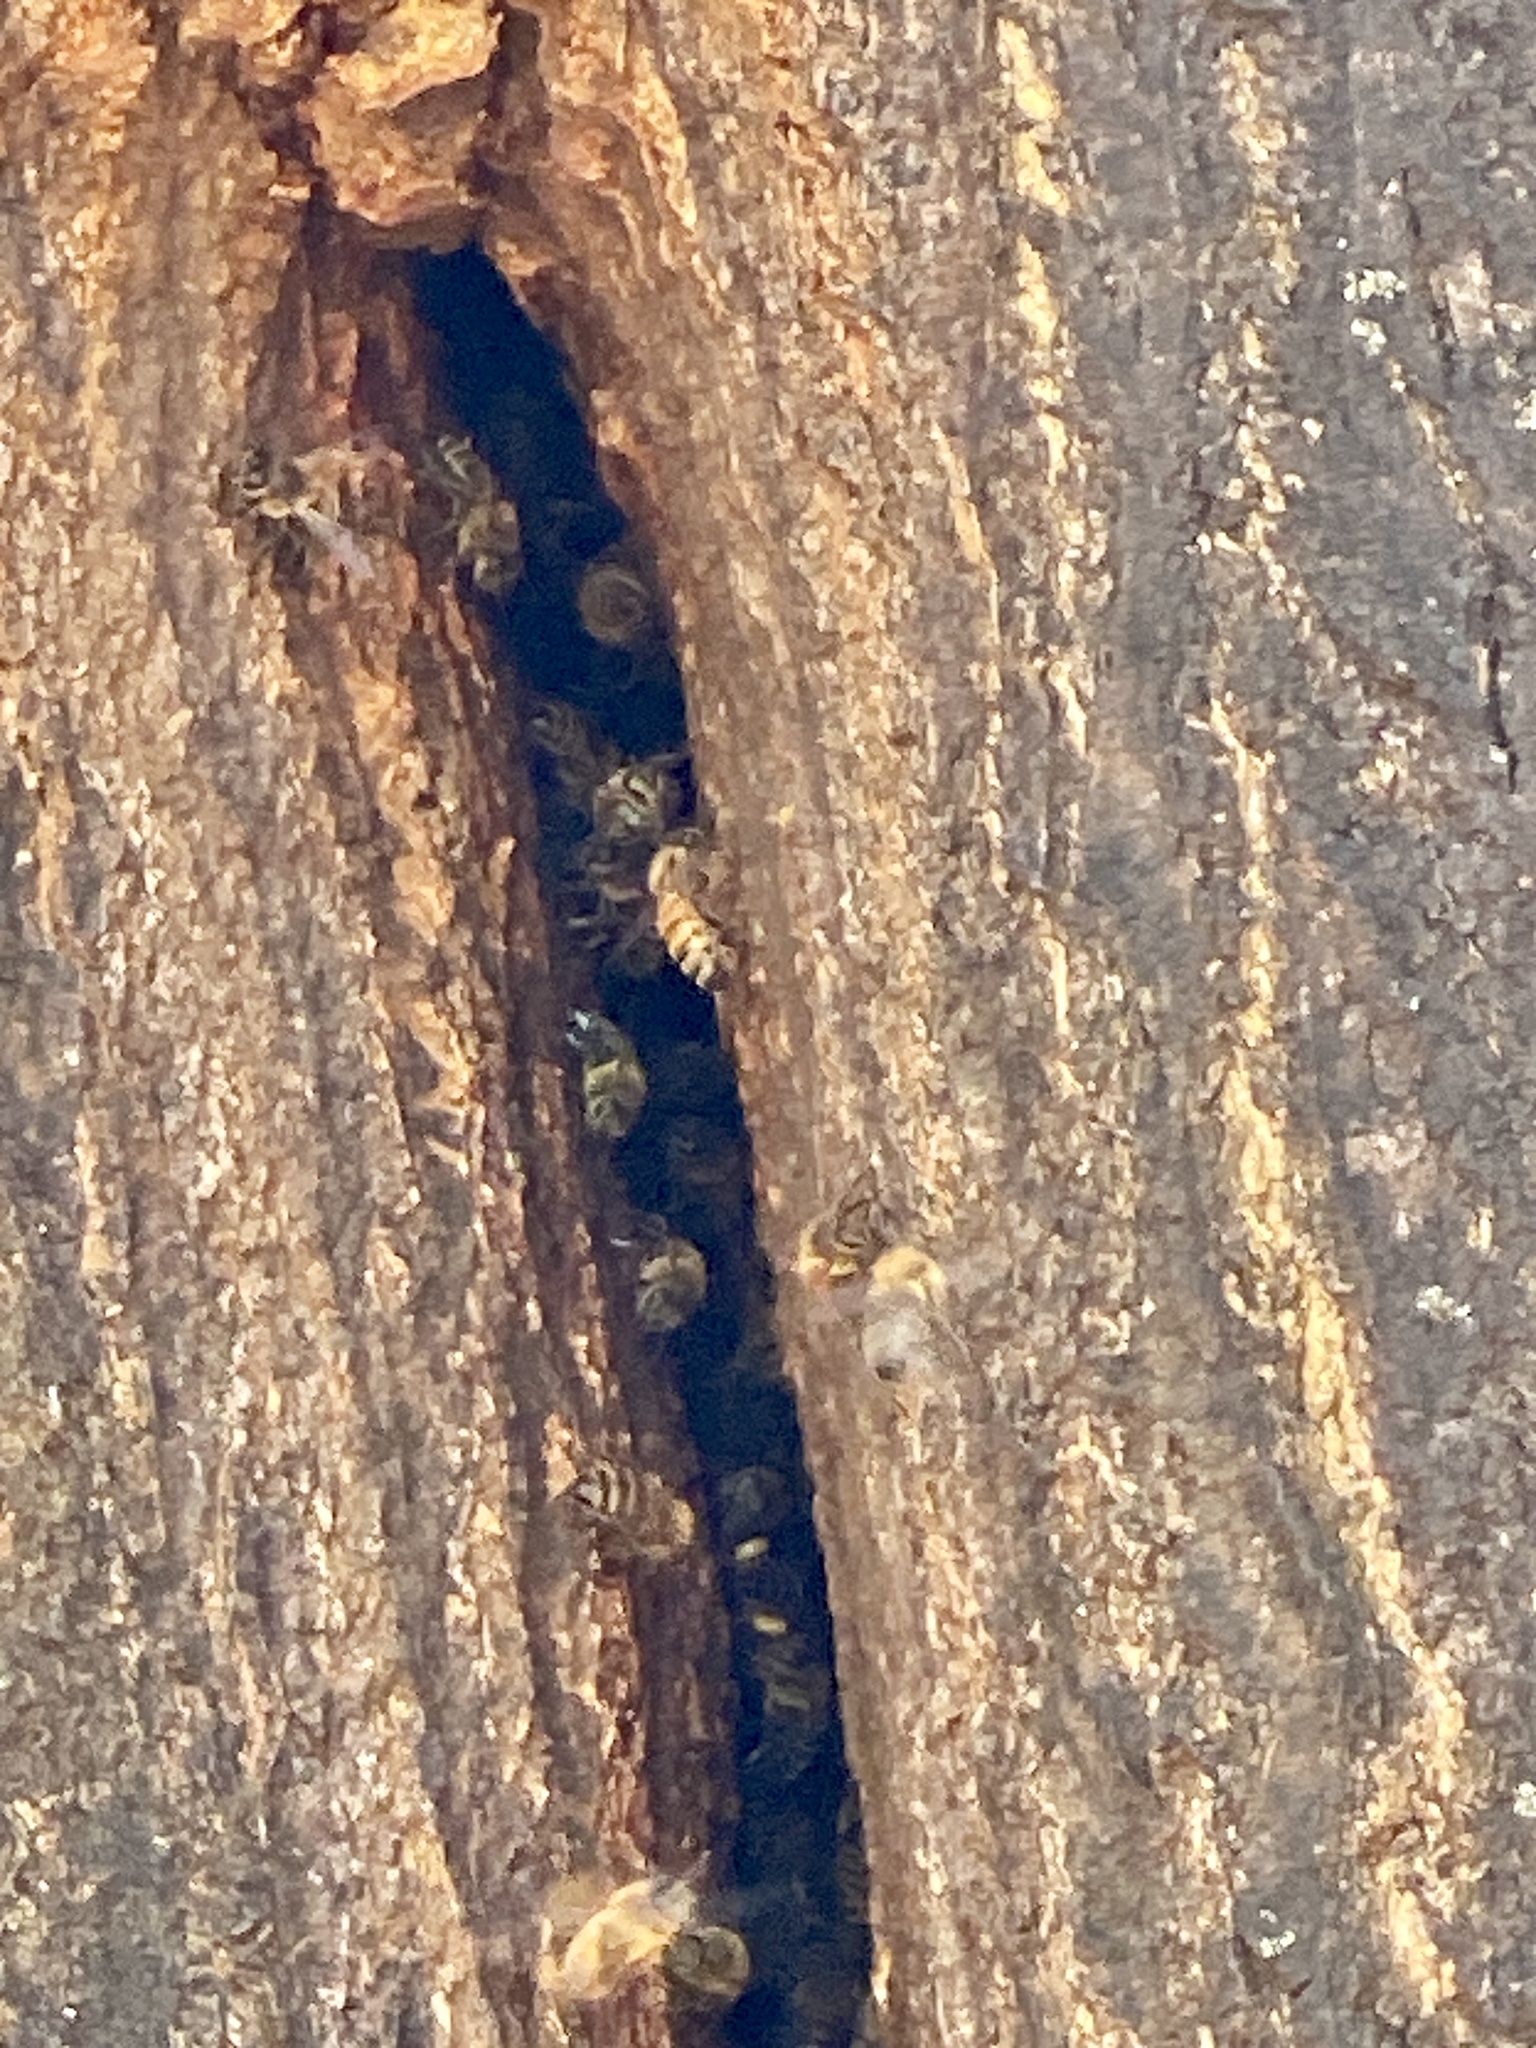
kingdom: Animalia
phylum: Arthropoda
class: Insecta
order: Hymenoptera
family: Apidae
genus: Apis
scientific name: Apis mellifera
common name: Honey bee
